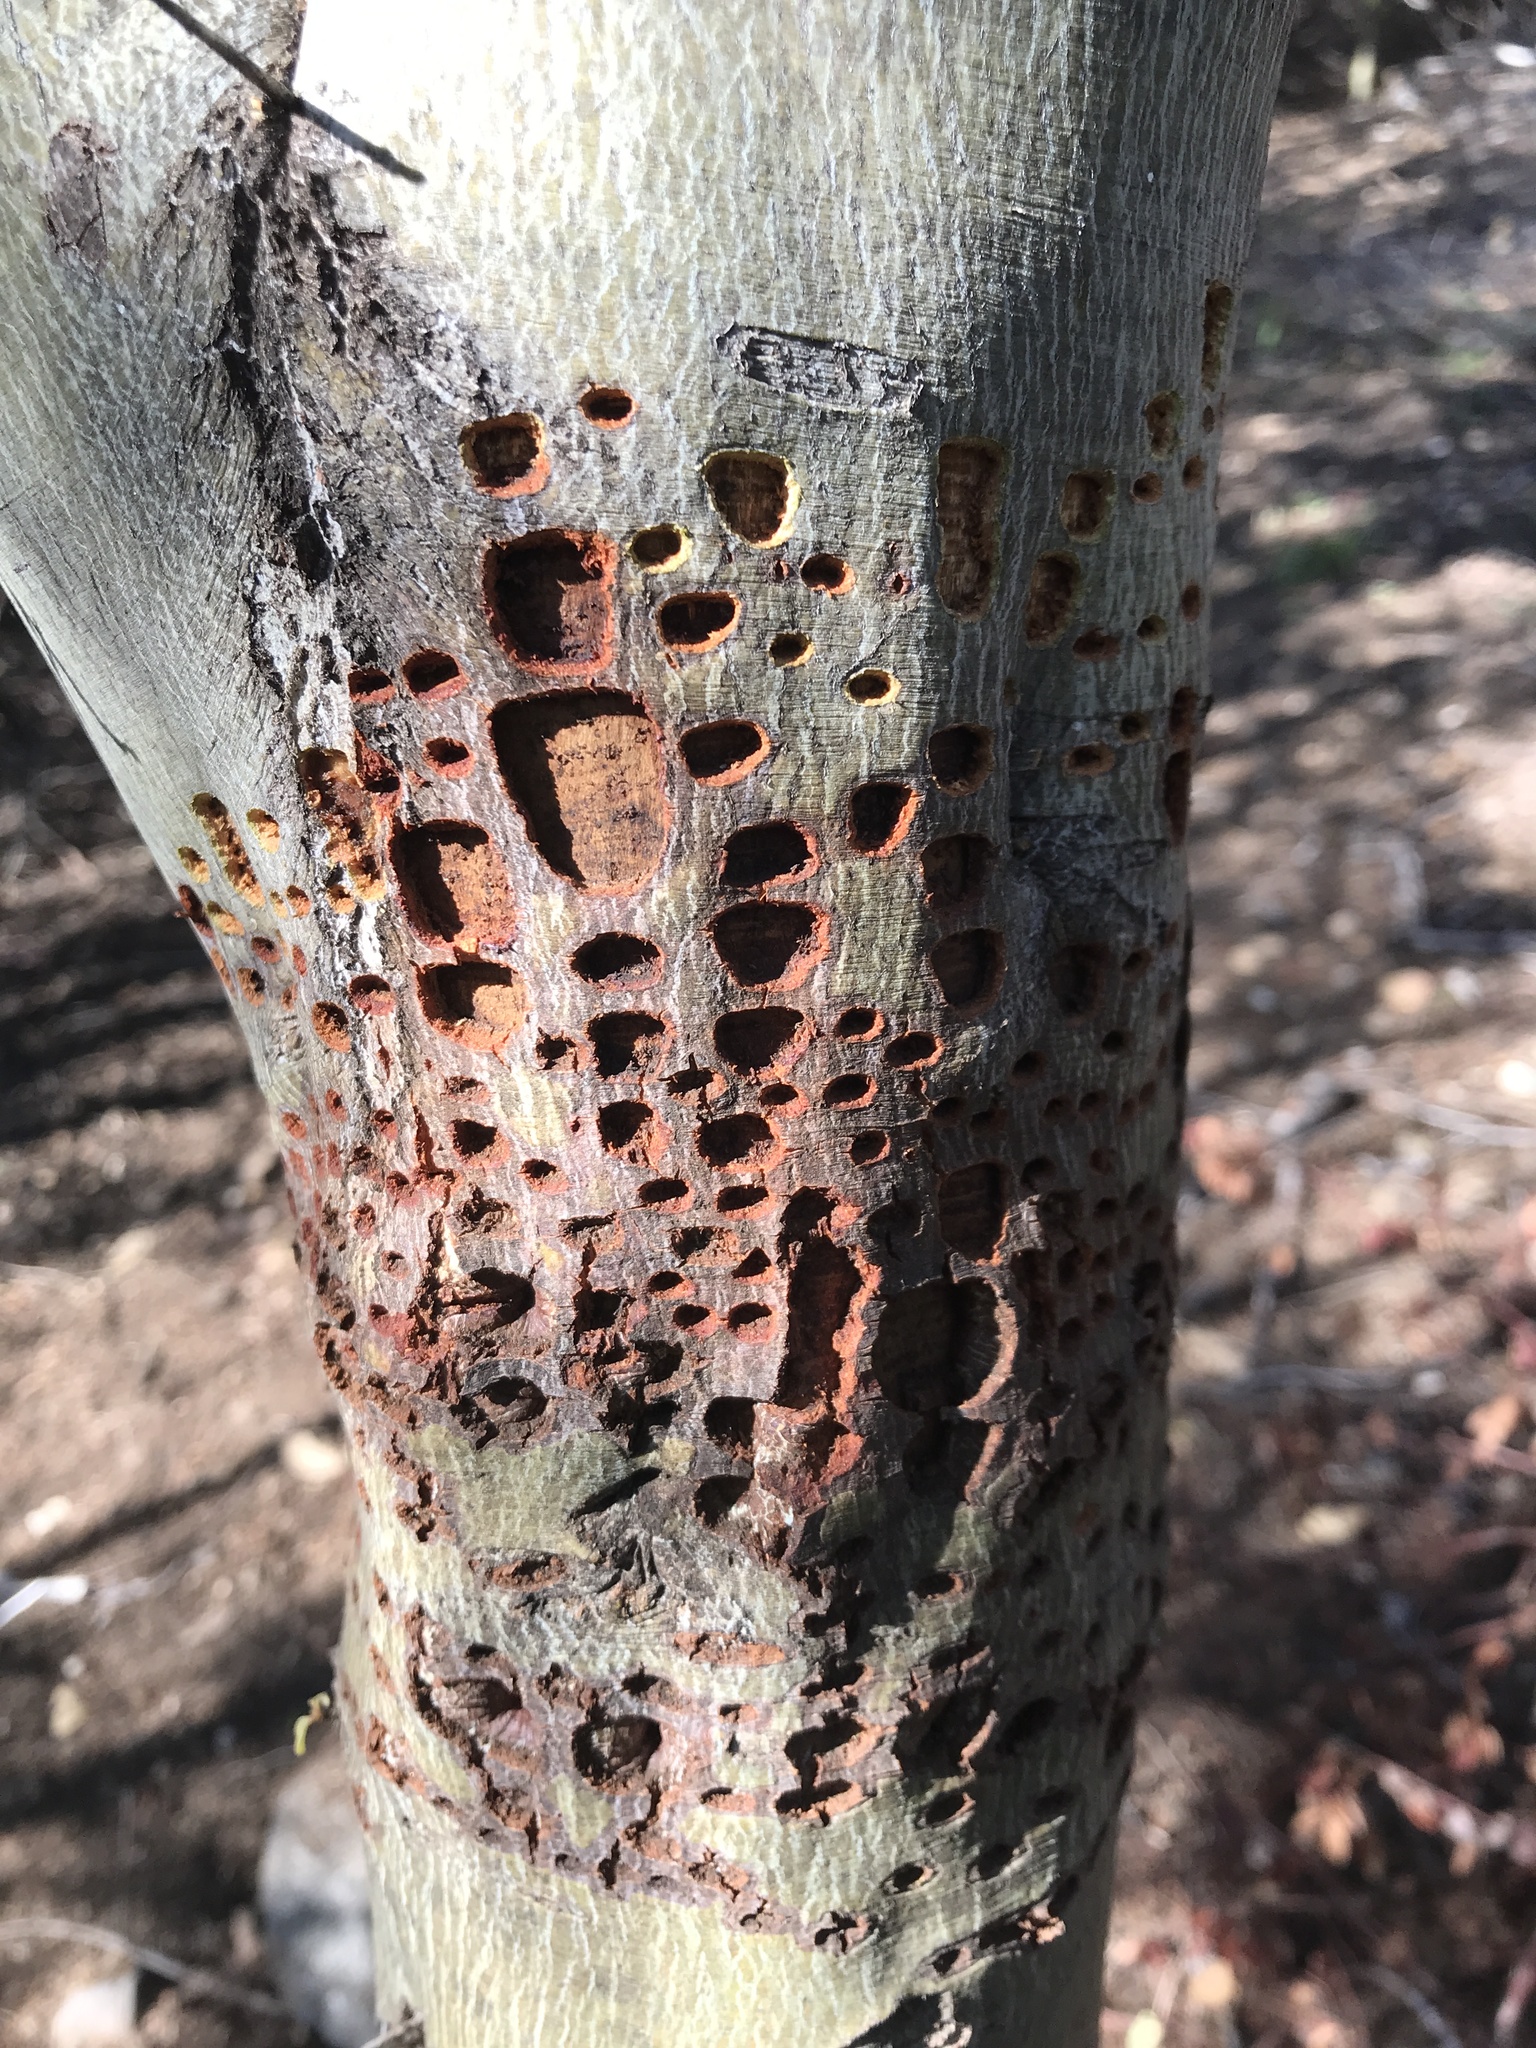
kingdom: Animalia
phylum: Chordata
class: Aves
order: Piciformes
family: Picidae
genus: Sphyrapicus
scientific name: Sphyrapicus varius
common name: Yellow-bellied sapsucker
